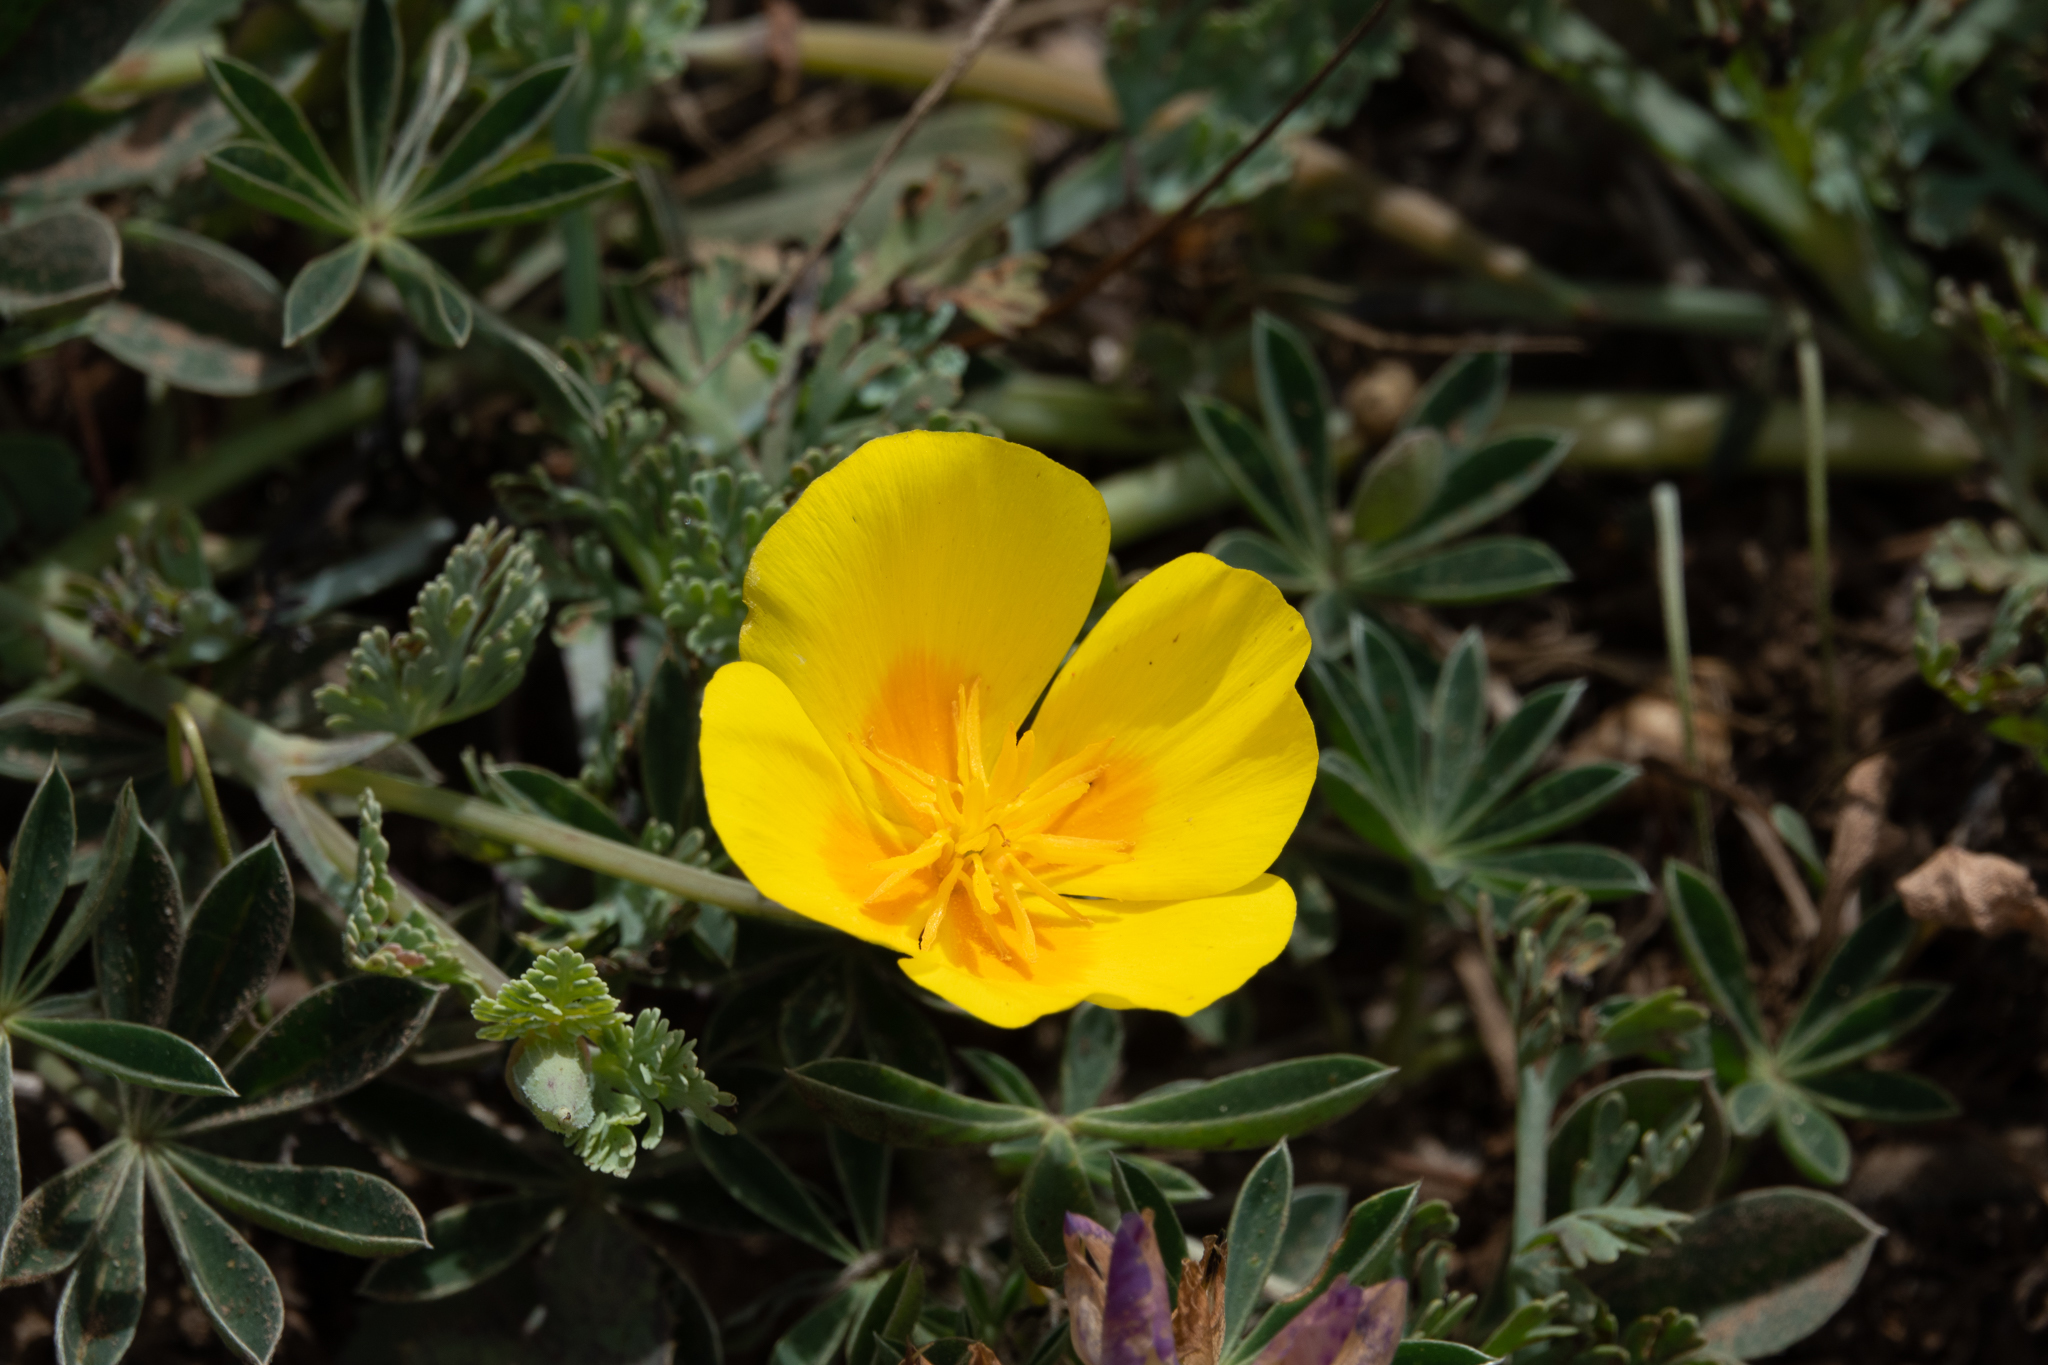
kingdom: Plantae
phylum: Tracheophyta
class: Magnoliopsida
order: Ranunculales
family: Papaveraceae
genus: Eschscholzia
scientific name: Eschscholzia californica
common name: California poppy
